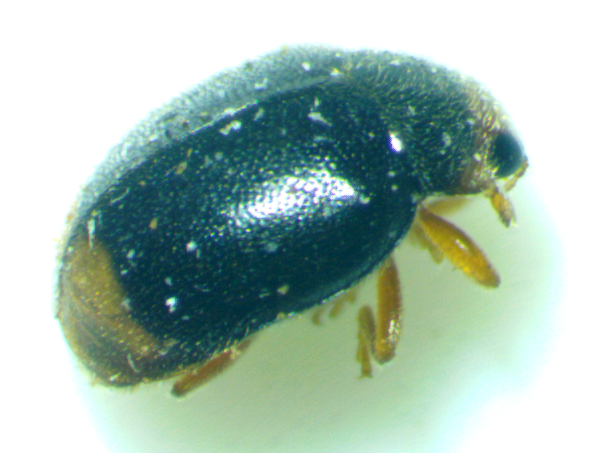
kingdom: Animalia
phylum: Arthropoda
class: Insecta
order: Coleoptera
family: Coccinellidae
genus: Diomus
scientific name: Diomus terminatus
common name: Firefly duskyling
